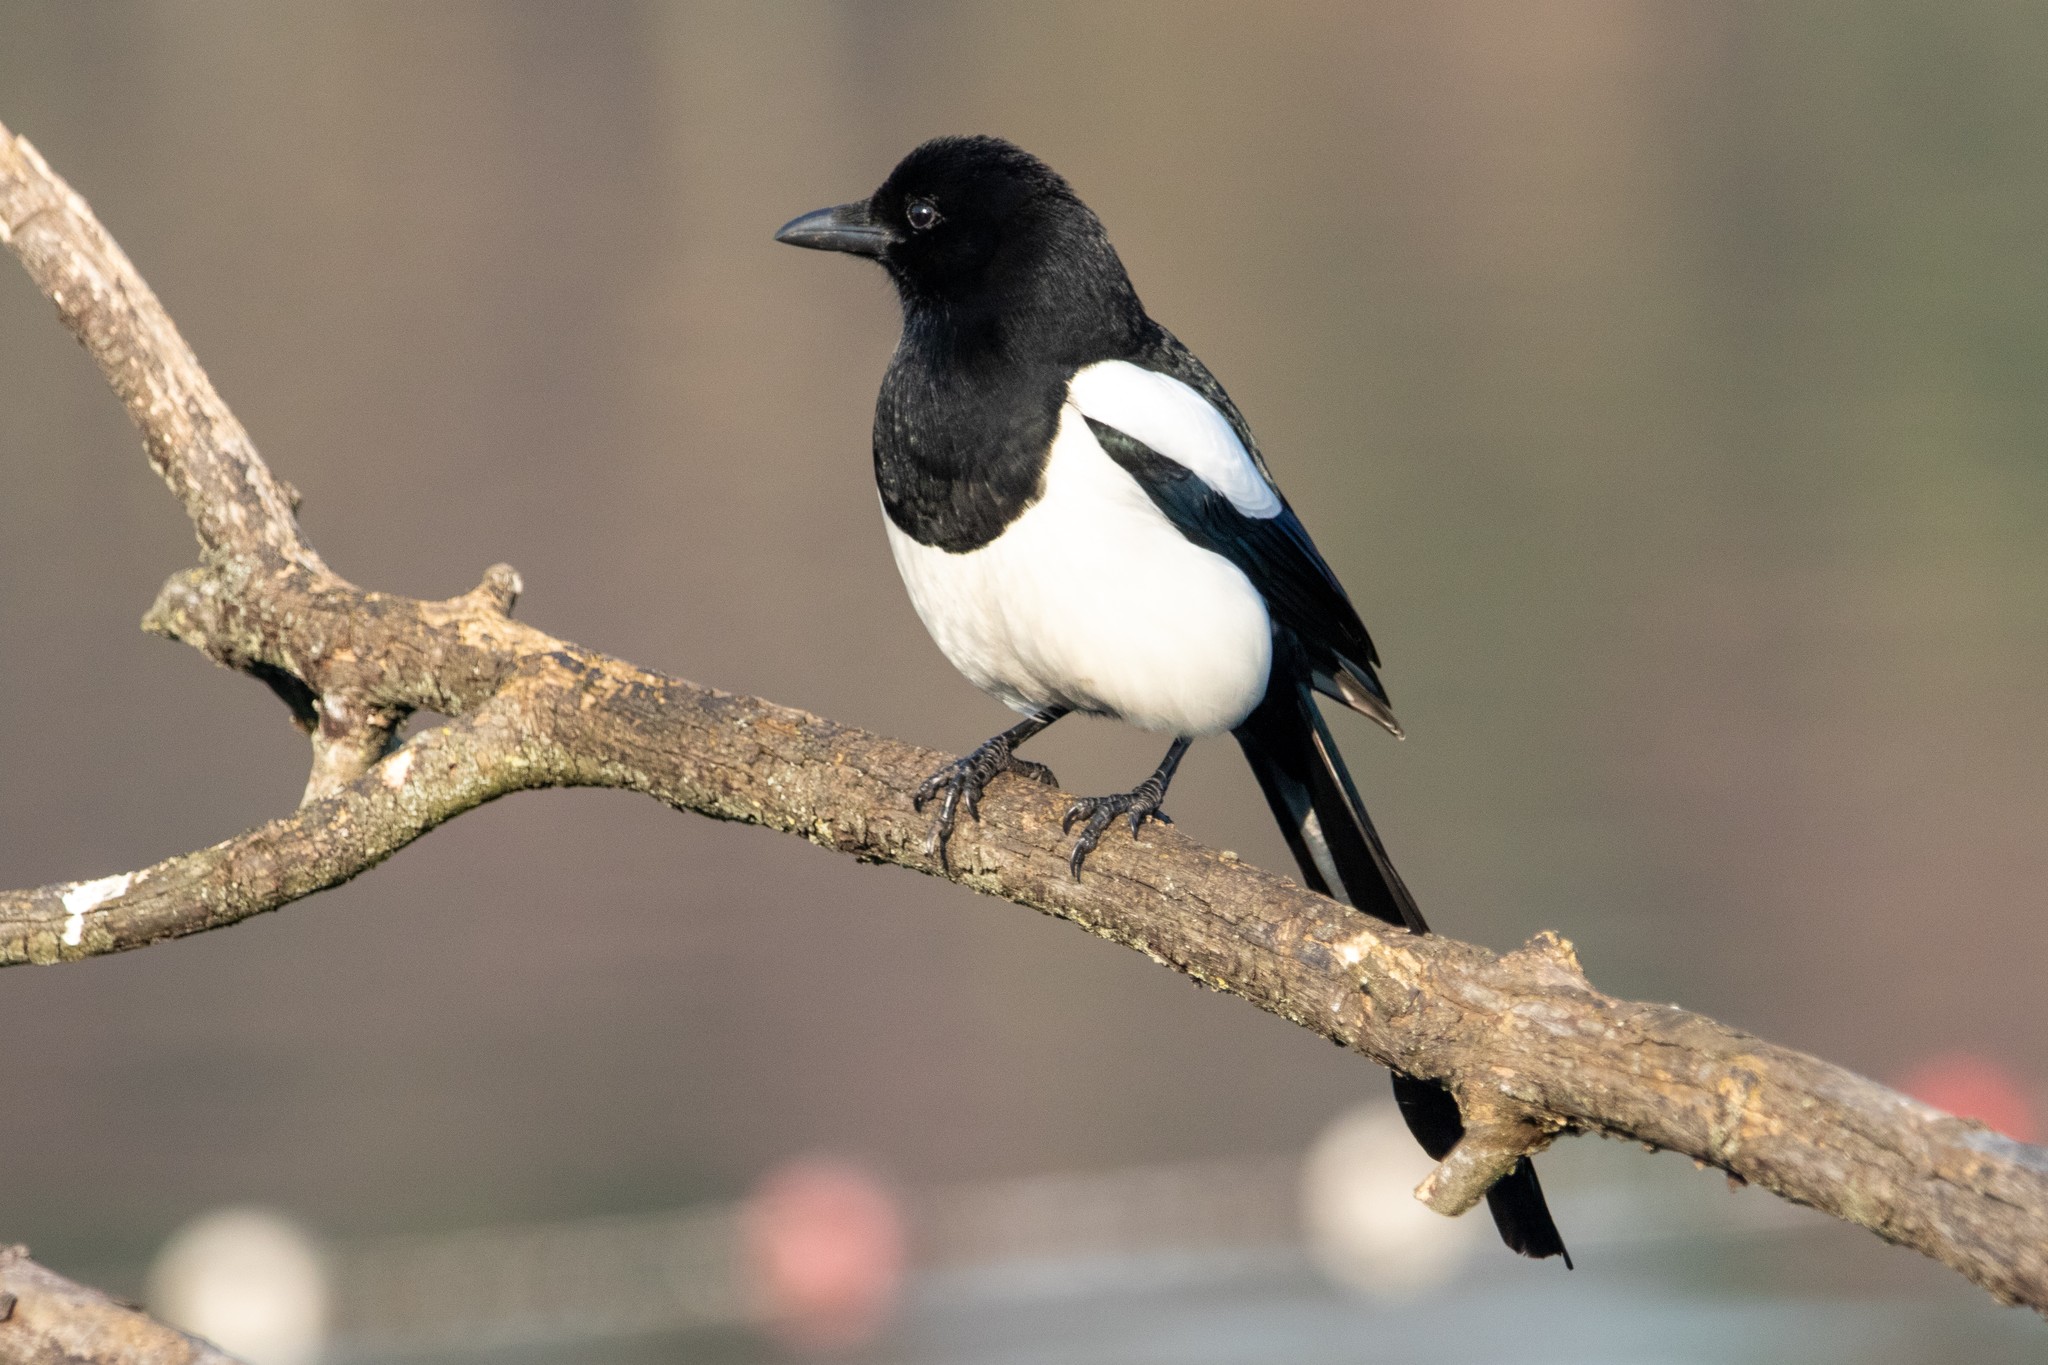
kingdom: Animalia
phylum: Chordata
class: Aves
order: Passeriformes
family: Corvidae
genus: Pica
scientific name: Pica pica
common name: Eurasian magpie
